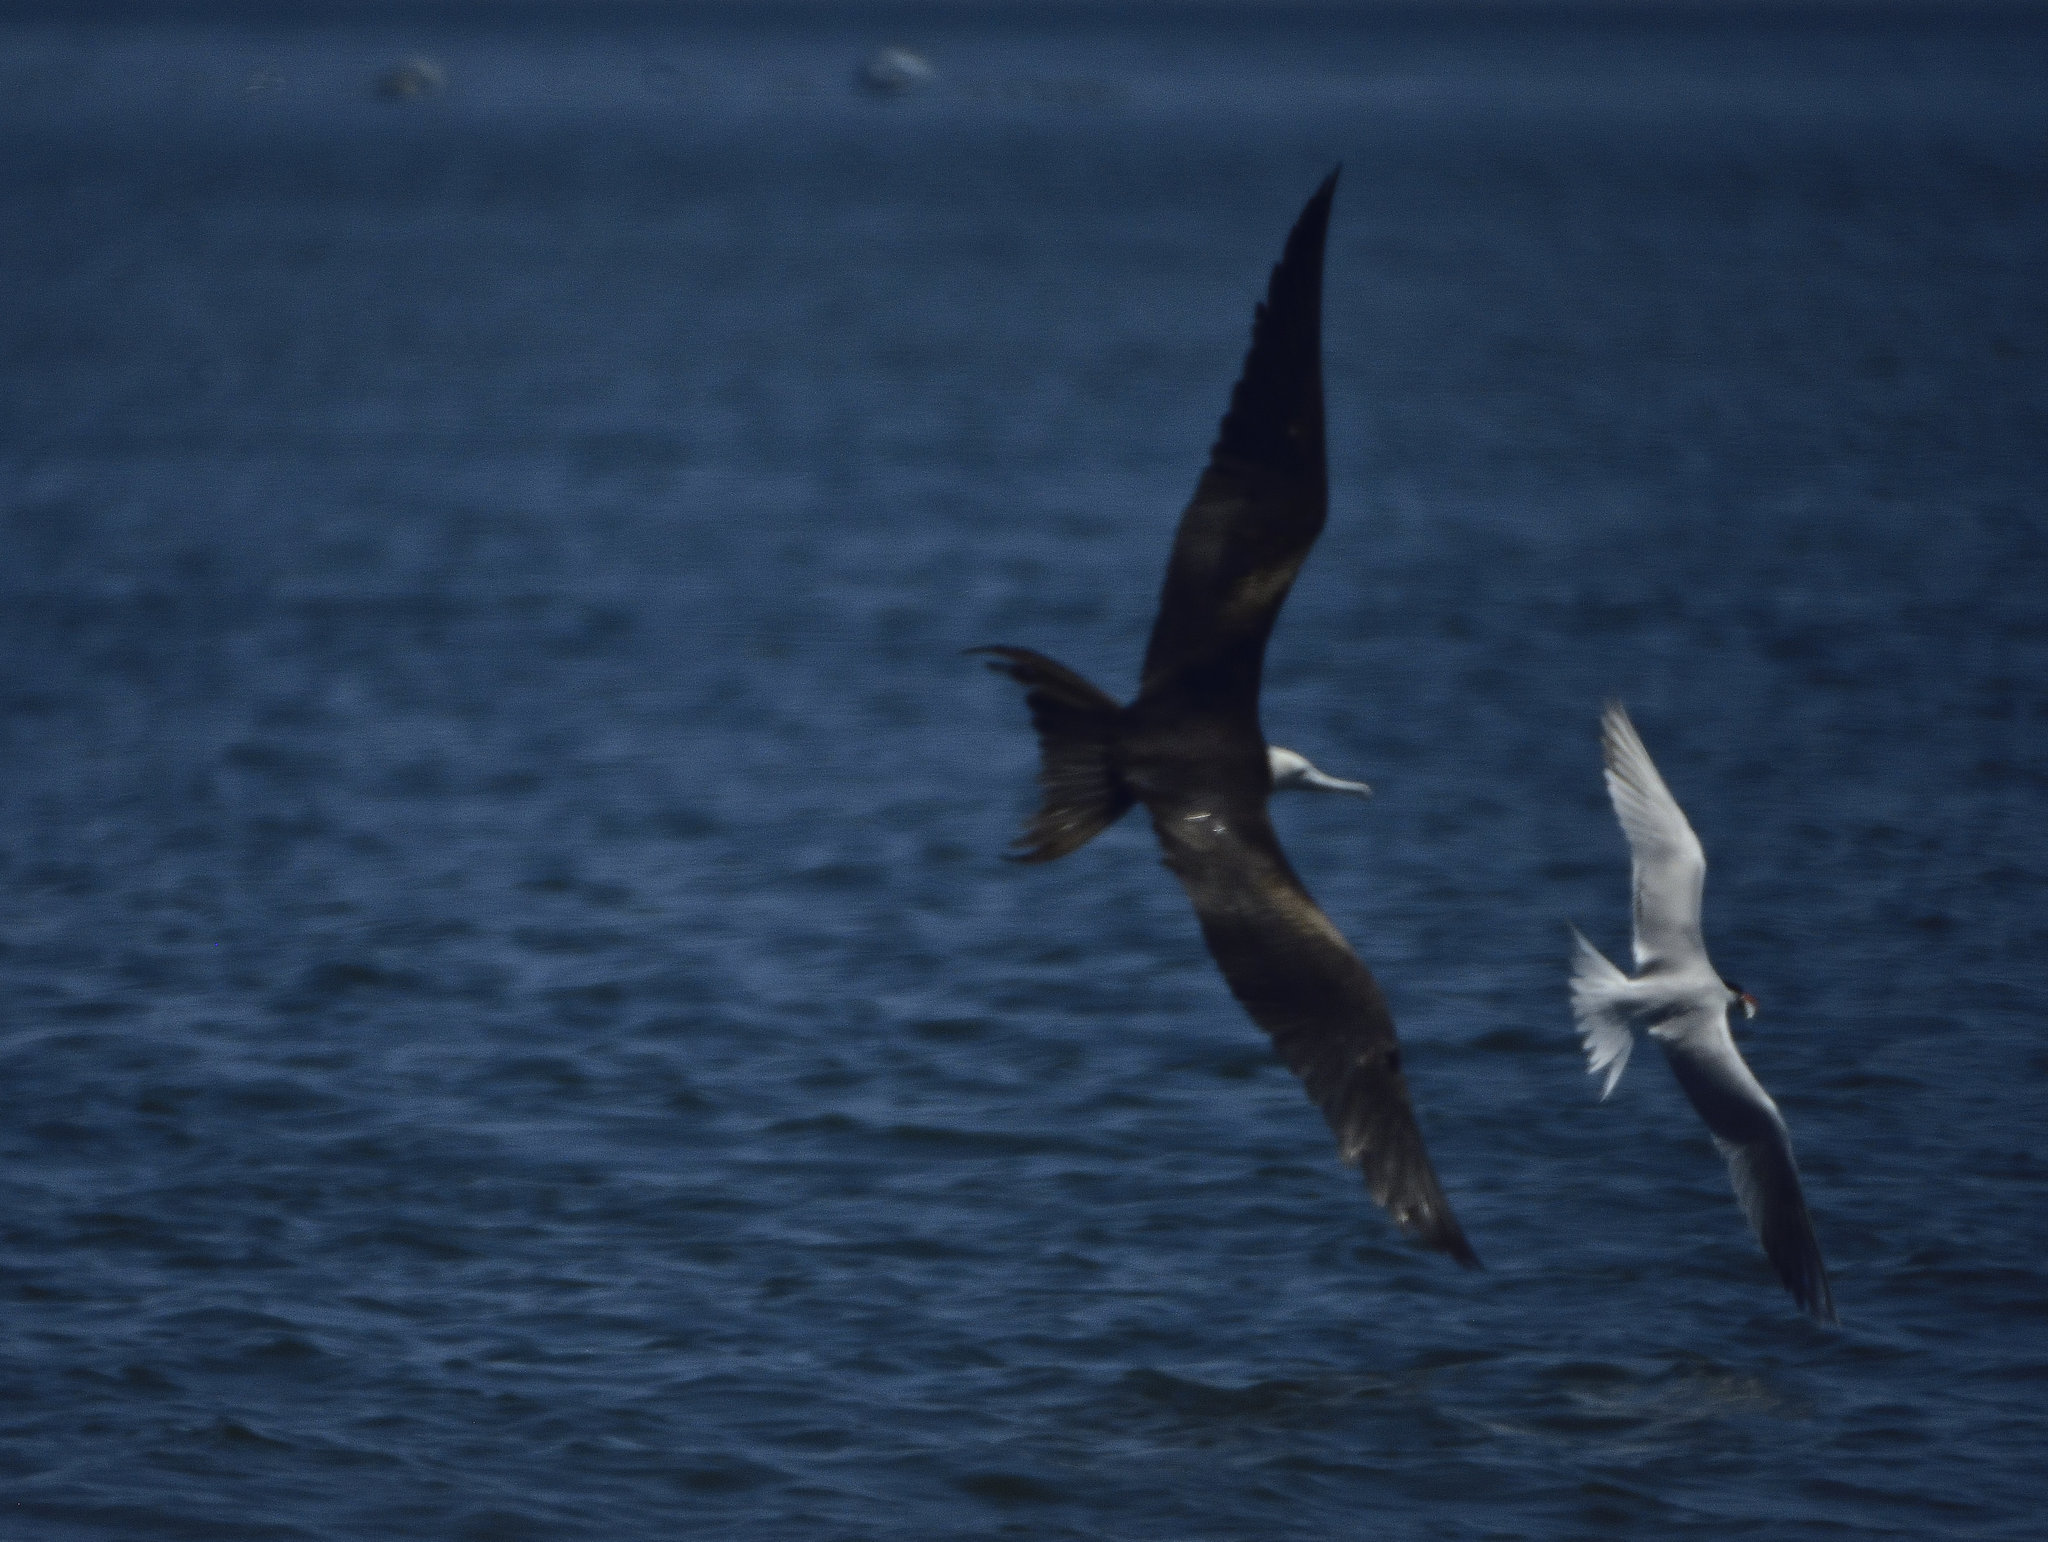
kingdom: Animalia
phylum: Chordata
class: Aves
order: Suliformes
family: Fregatidae
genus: Fregata
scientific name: Fregata magnificens
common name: Magnificent frigatebird
